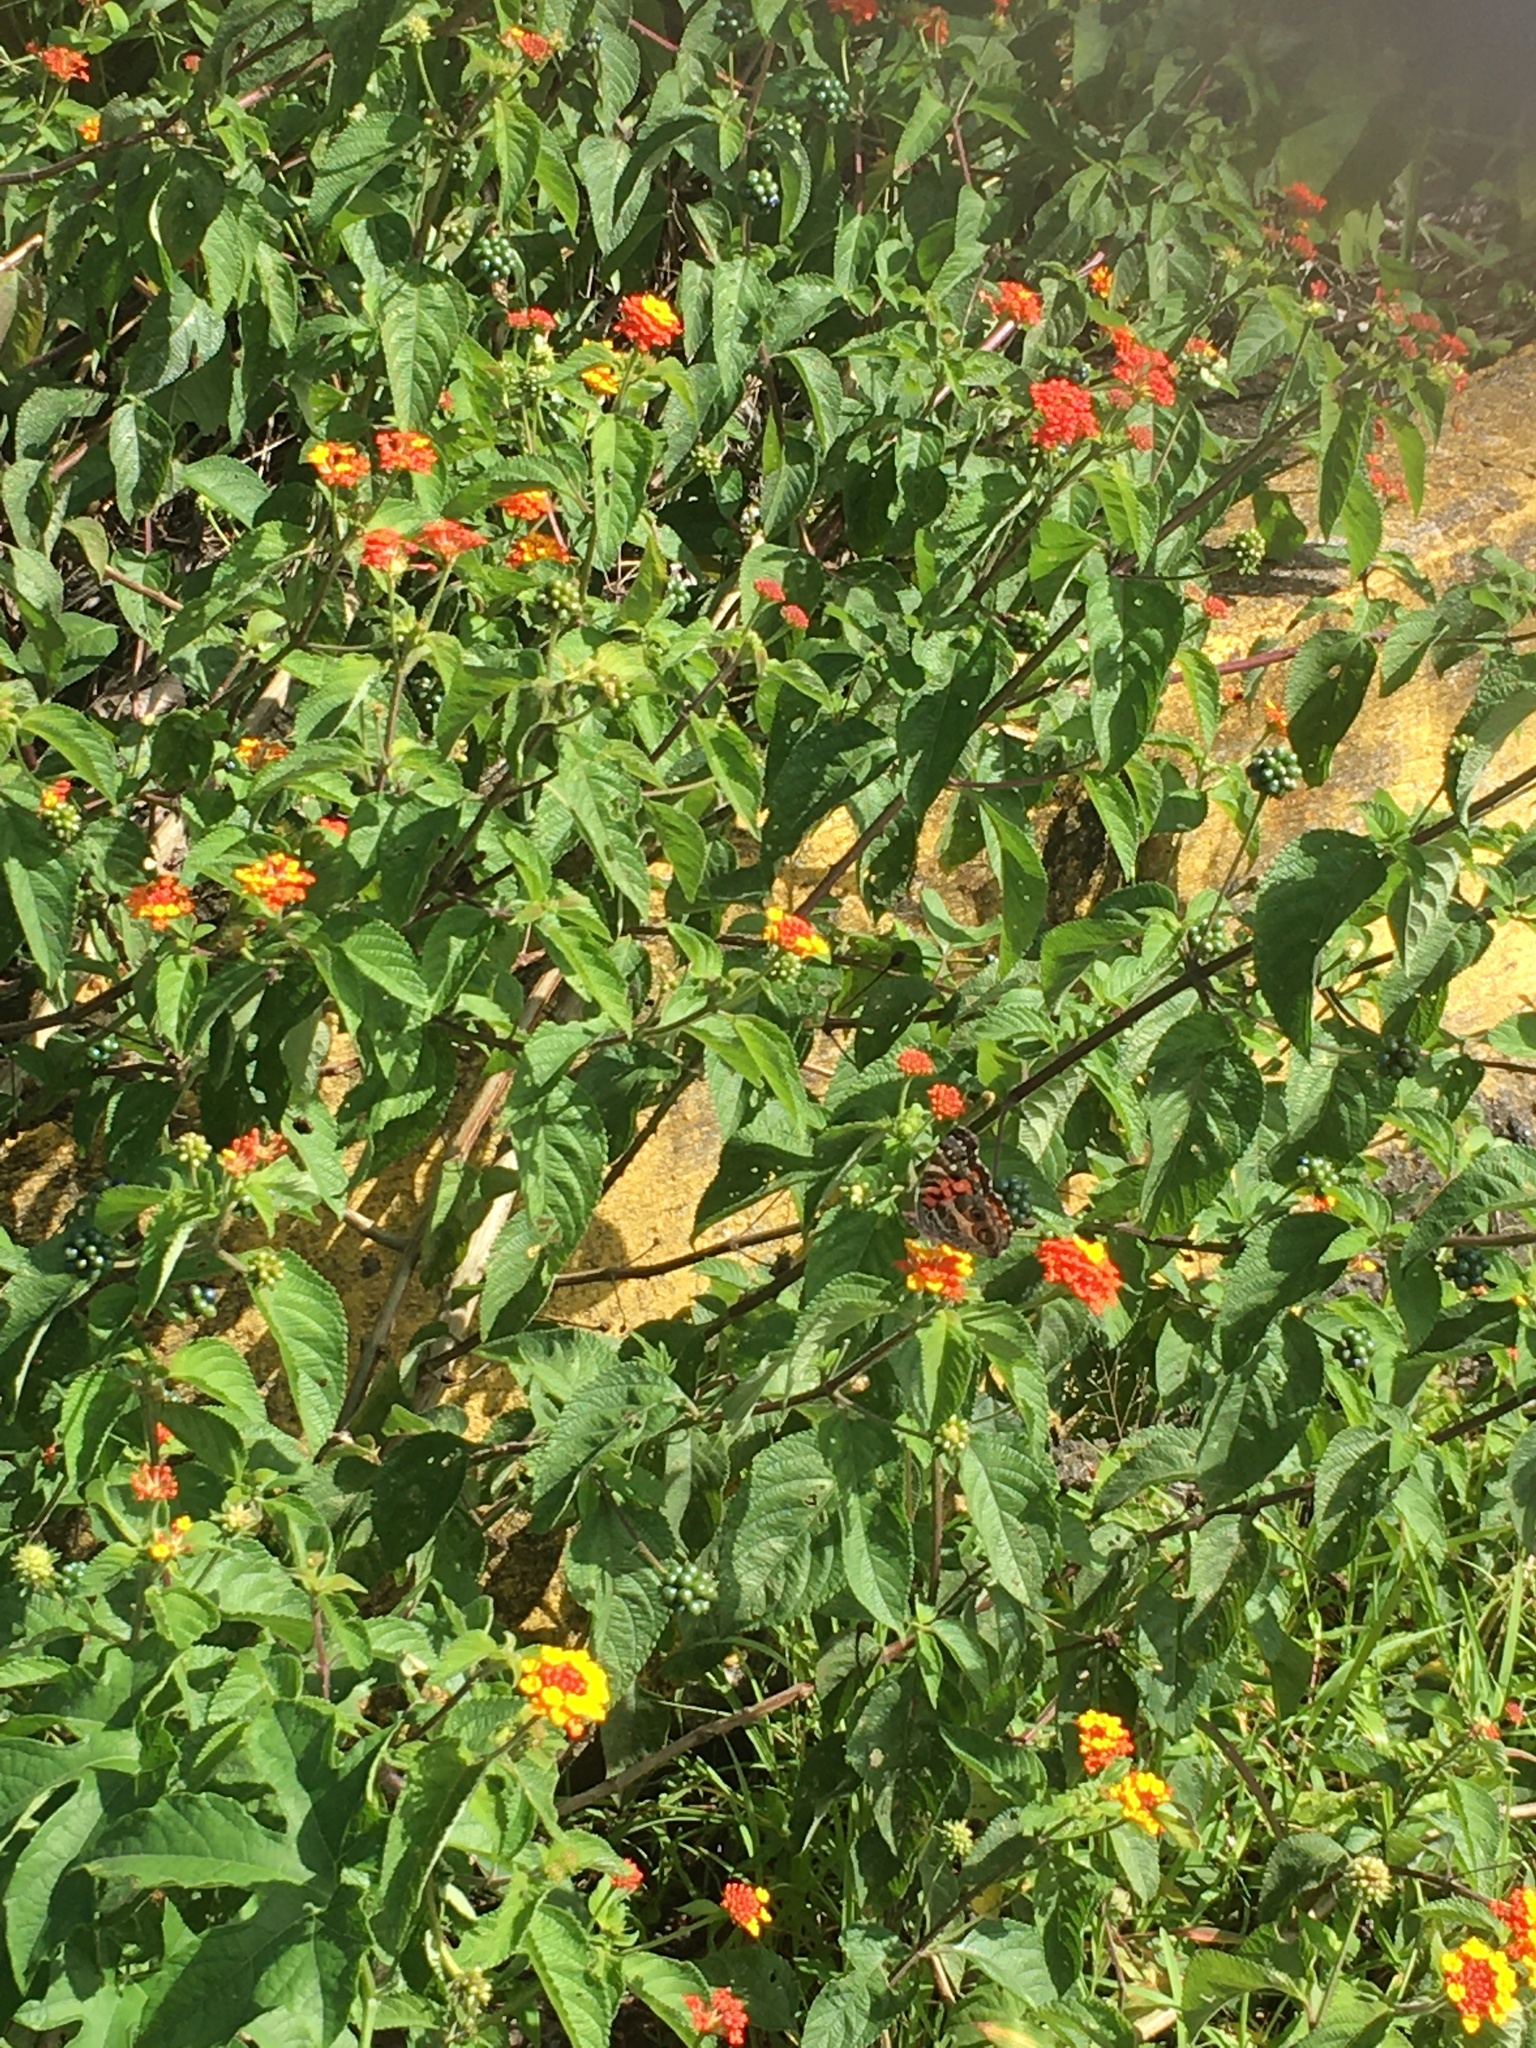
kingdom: Animalia
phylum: Arthropoda
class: Insecta
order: Lepidoptera
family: Nymphalidae
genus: Vanessa
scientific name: Vanessa virginiensis
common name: American lady
